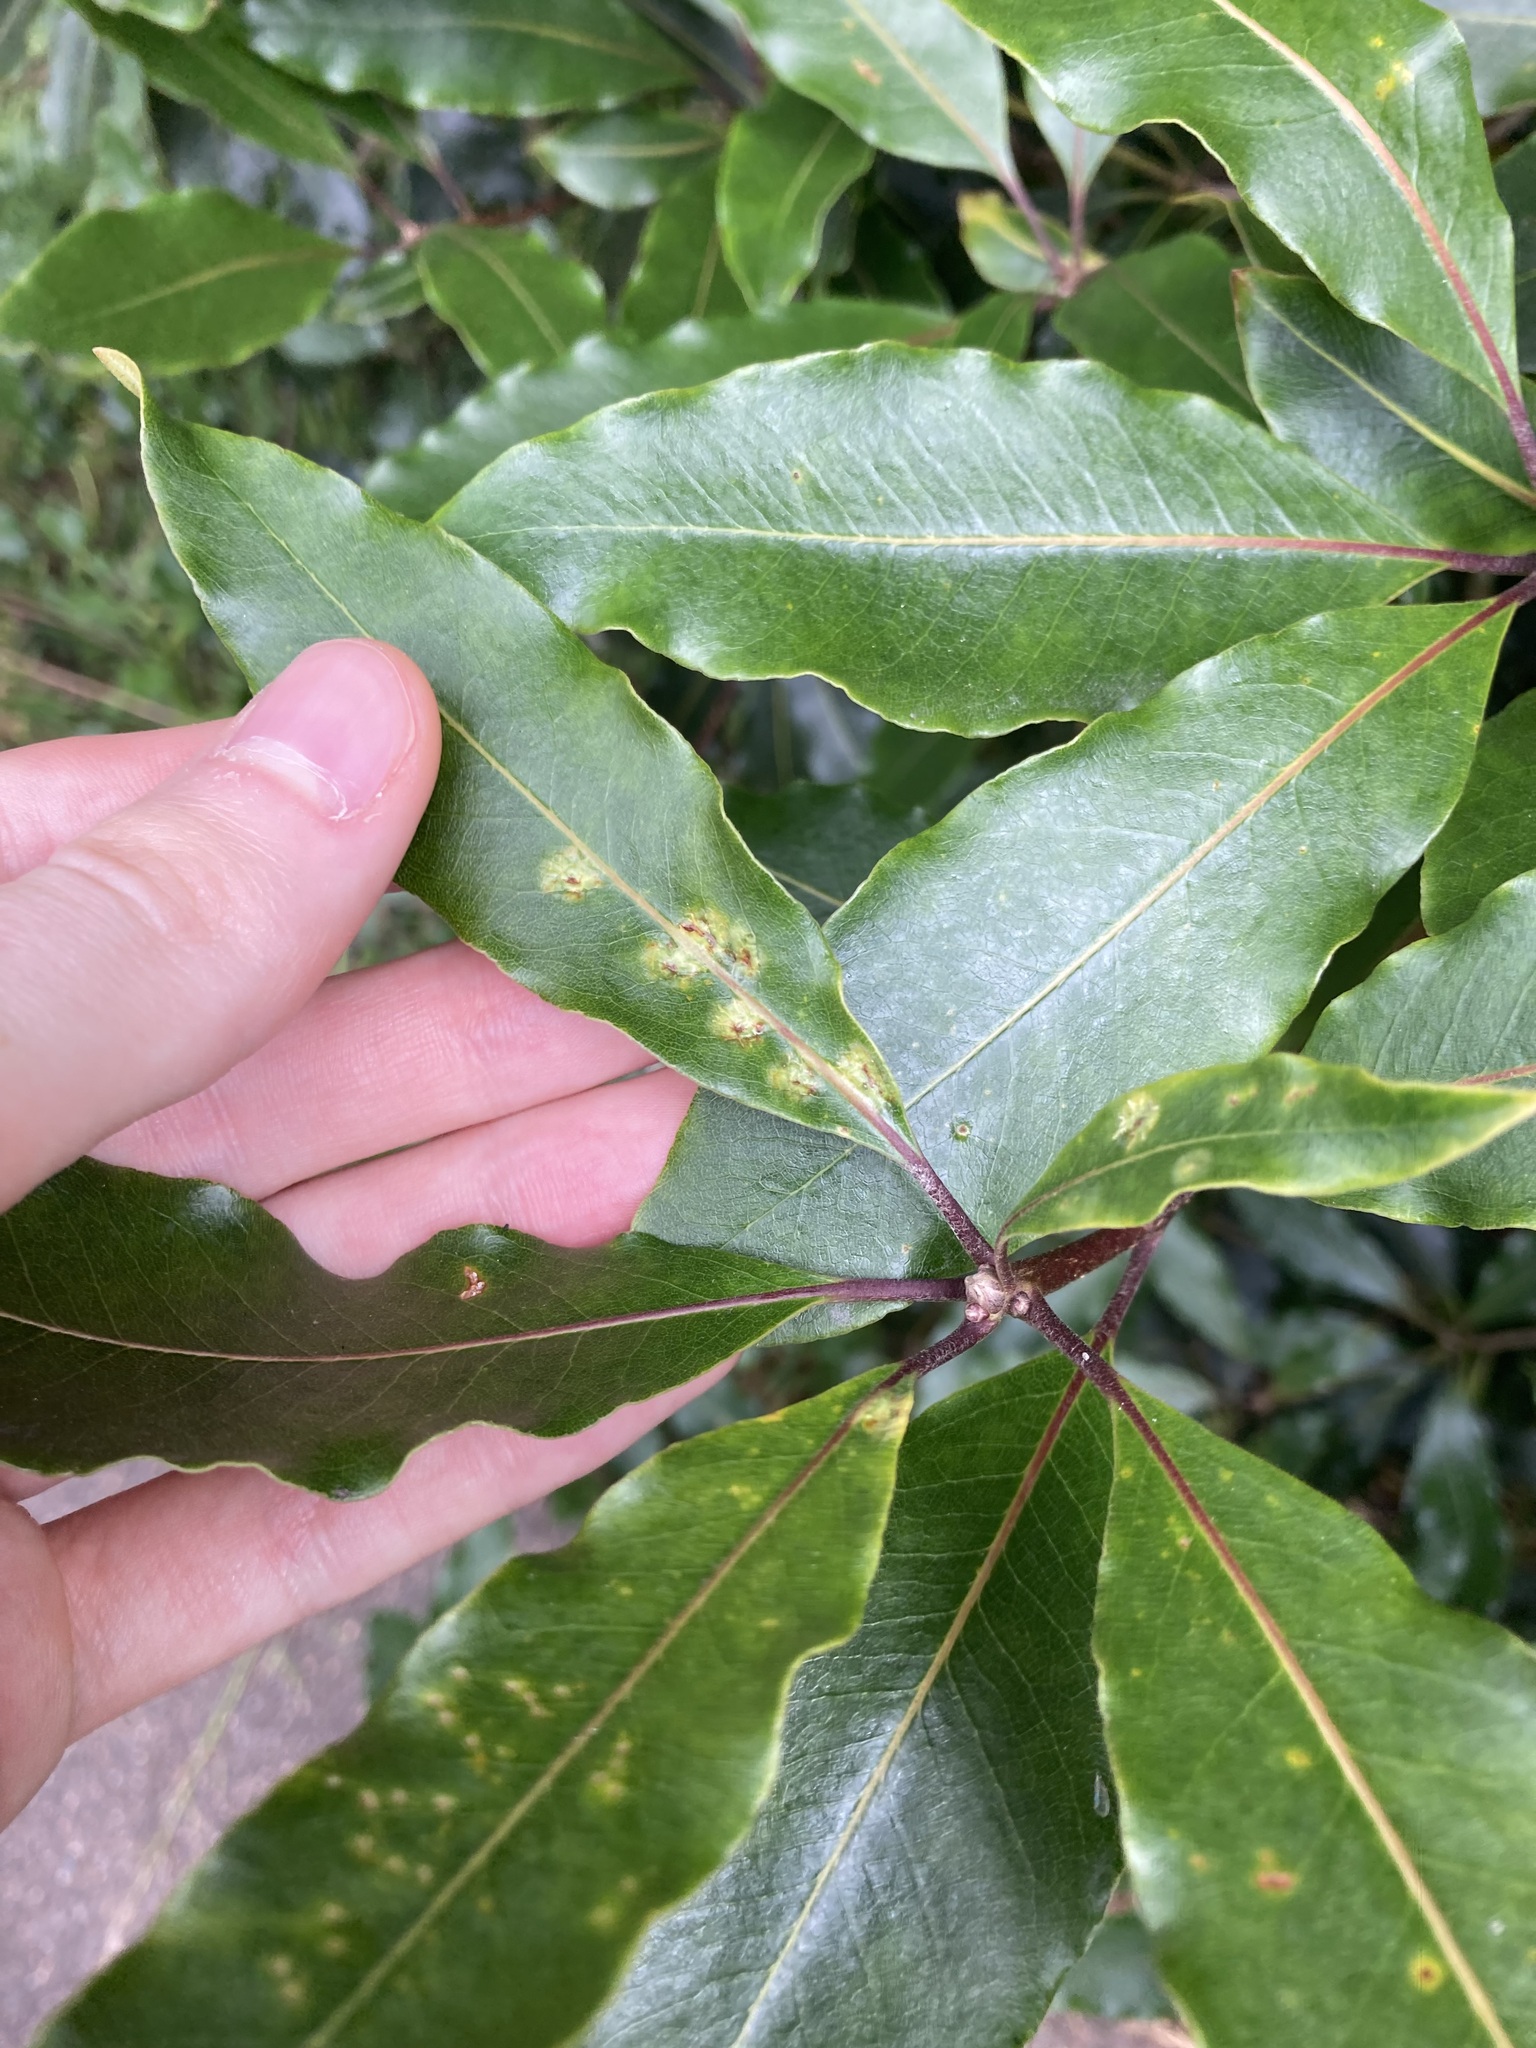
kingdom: Animalia
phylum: Arthropoda
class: Insecta
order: Diptera
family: Agromyzidae
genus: Phytoliriomyza
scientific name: Phytoliriomyza pittosporophylli
